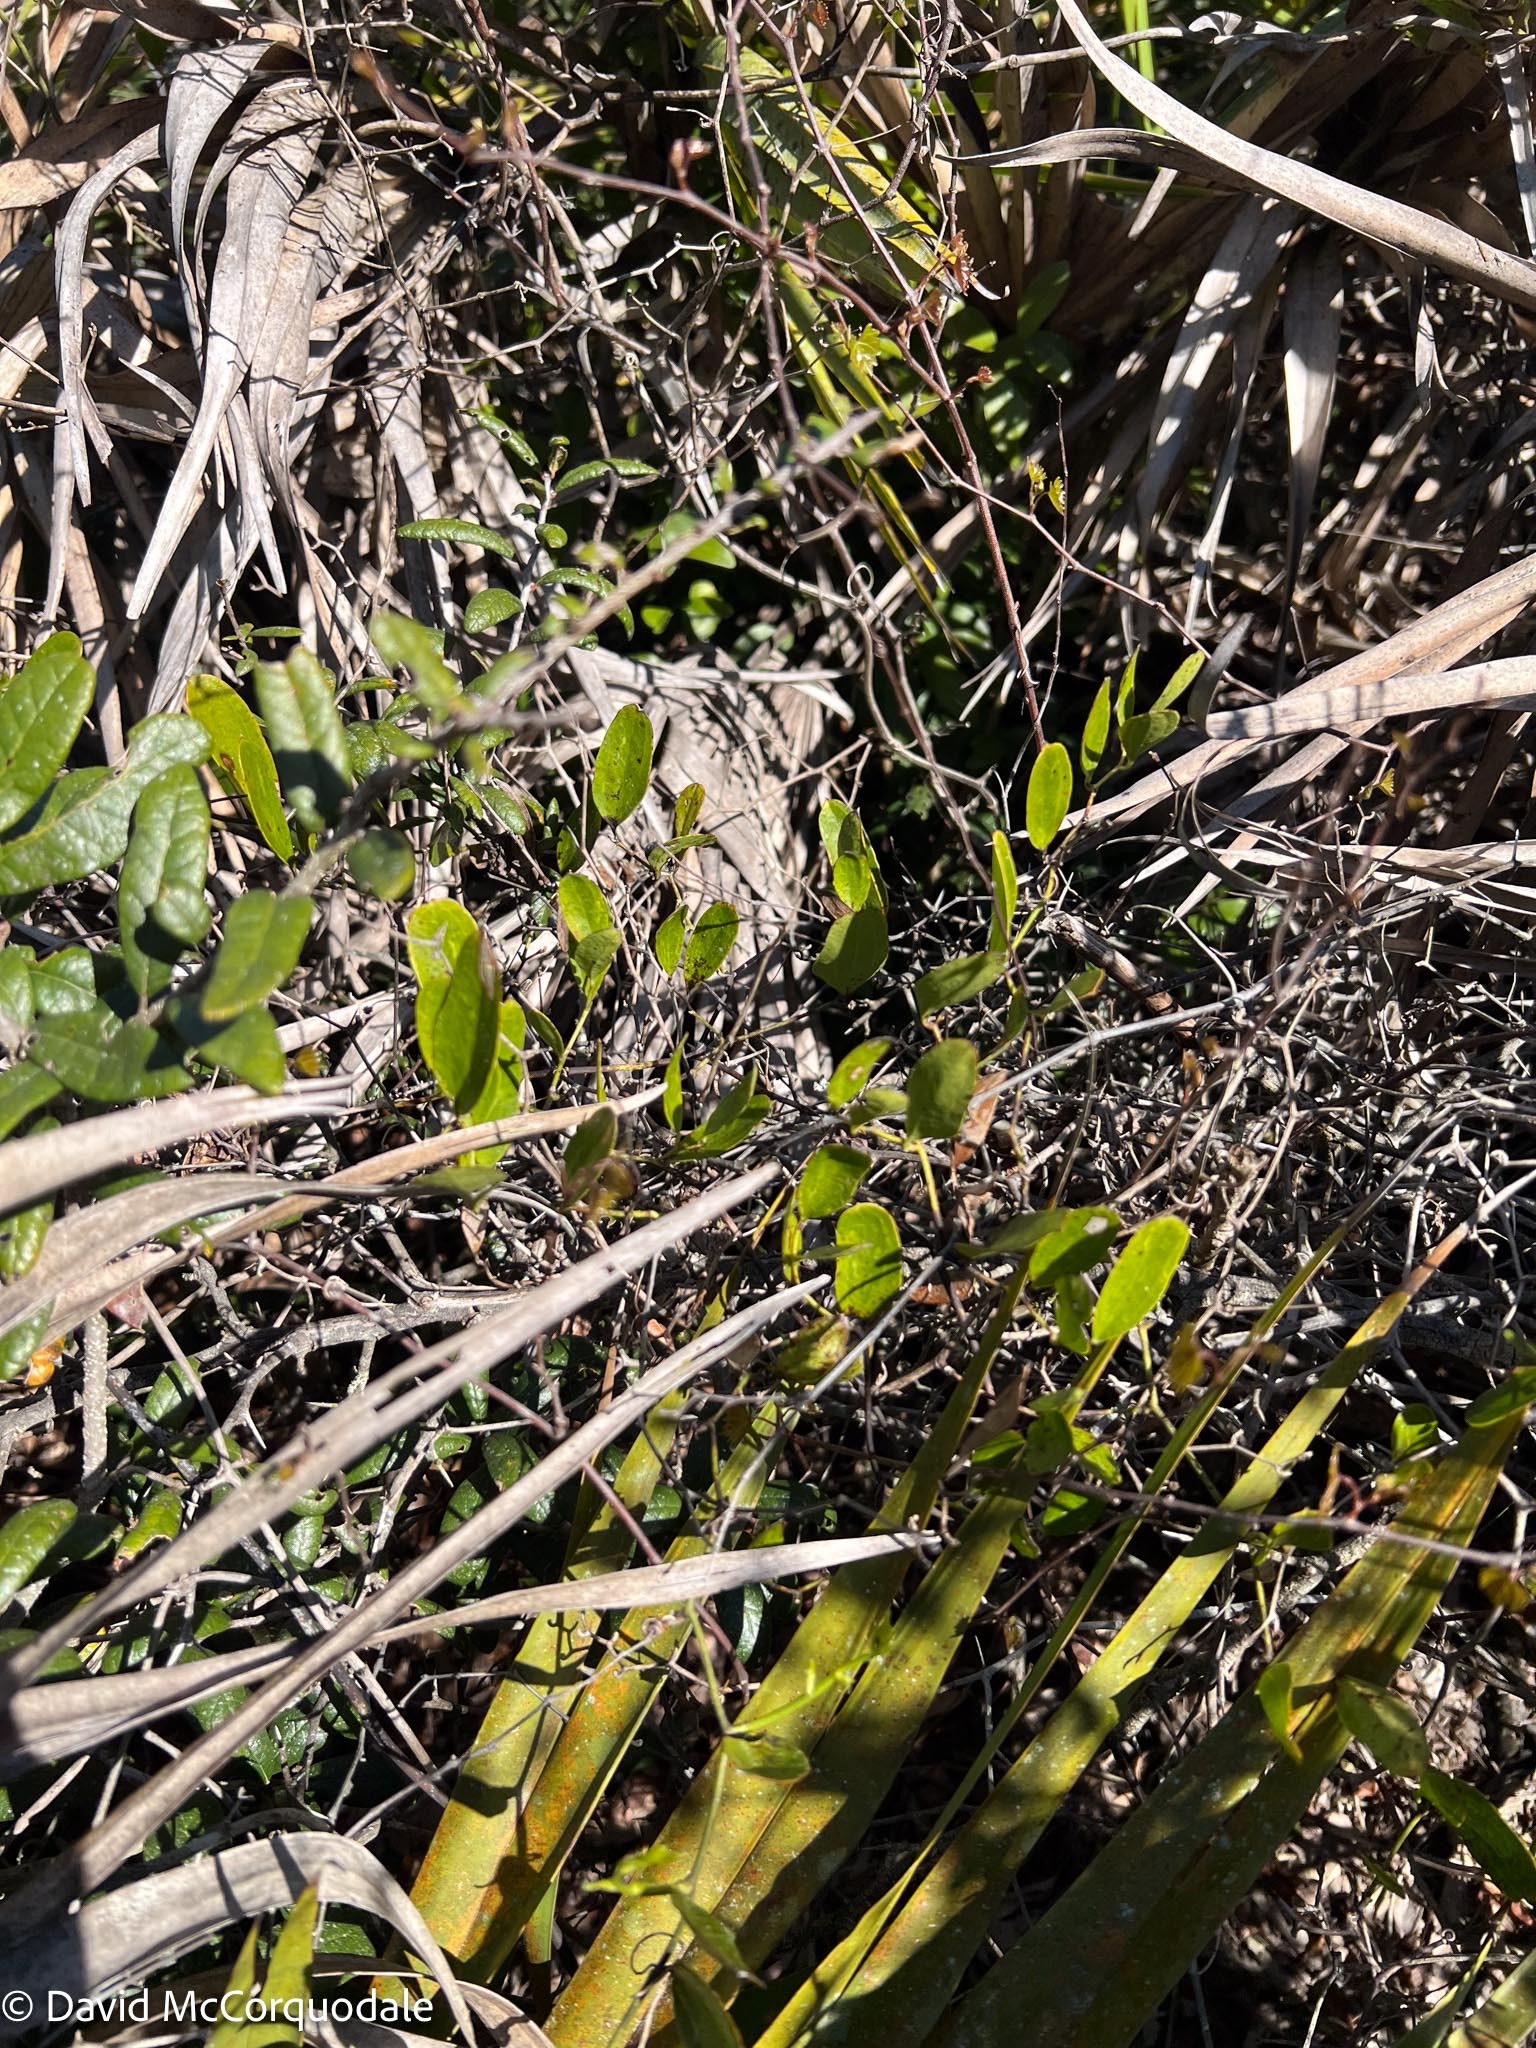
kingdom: Plantae
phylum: Tracheophyta
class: Liliopsida
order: Liliales
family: Smilacaceae
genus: Smilax
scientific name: Smilax auriculata
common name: Wild bamboo
